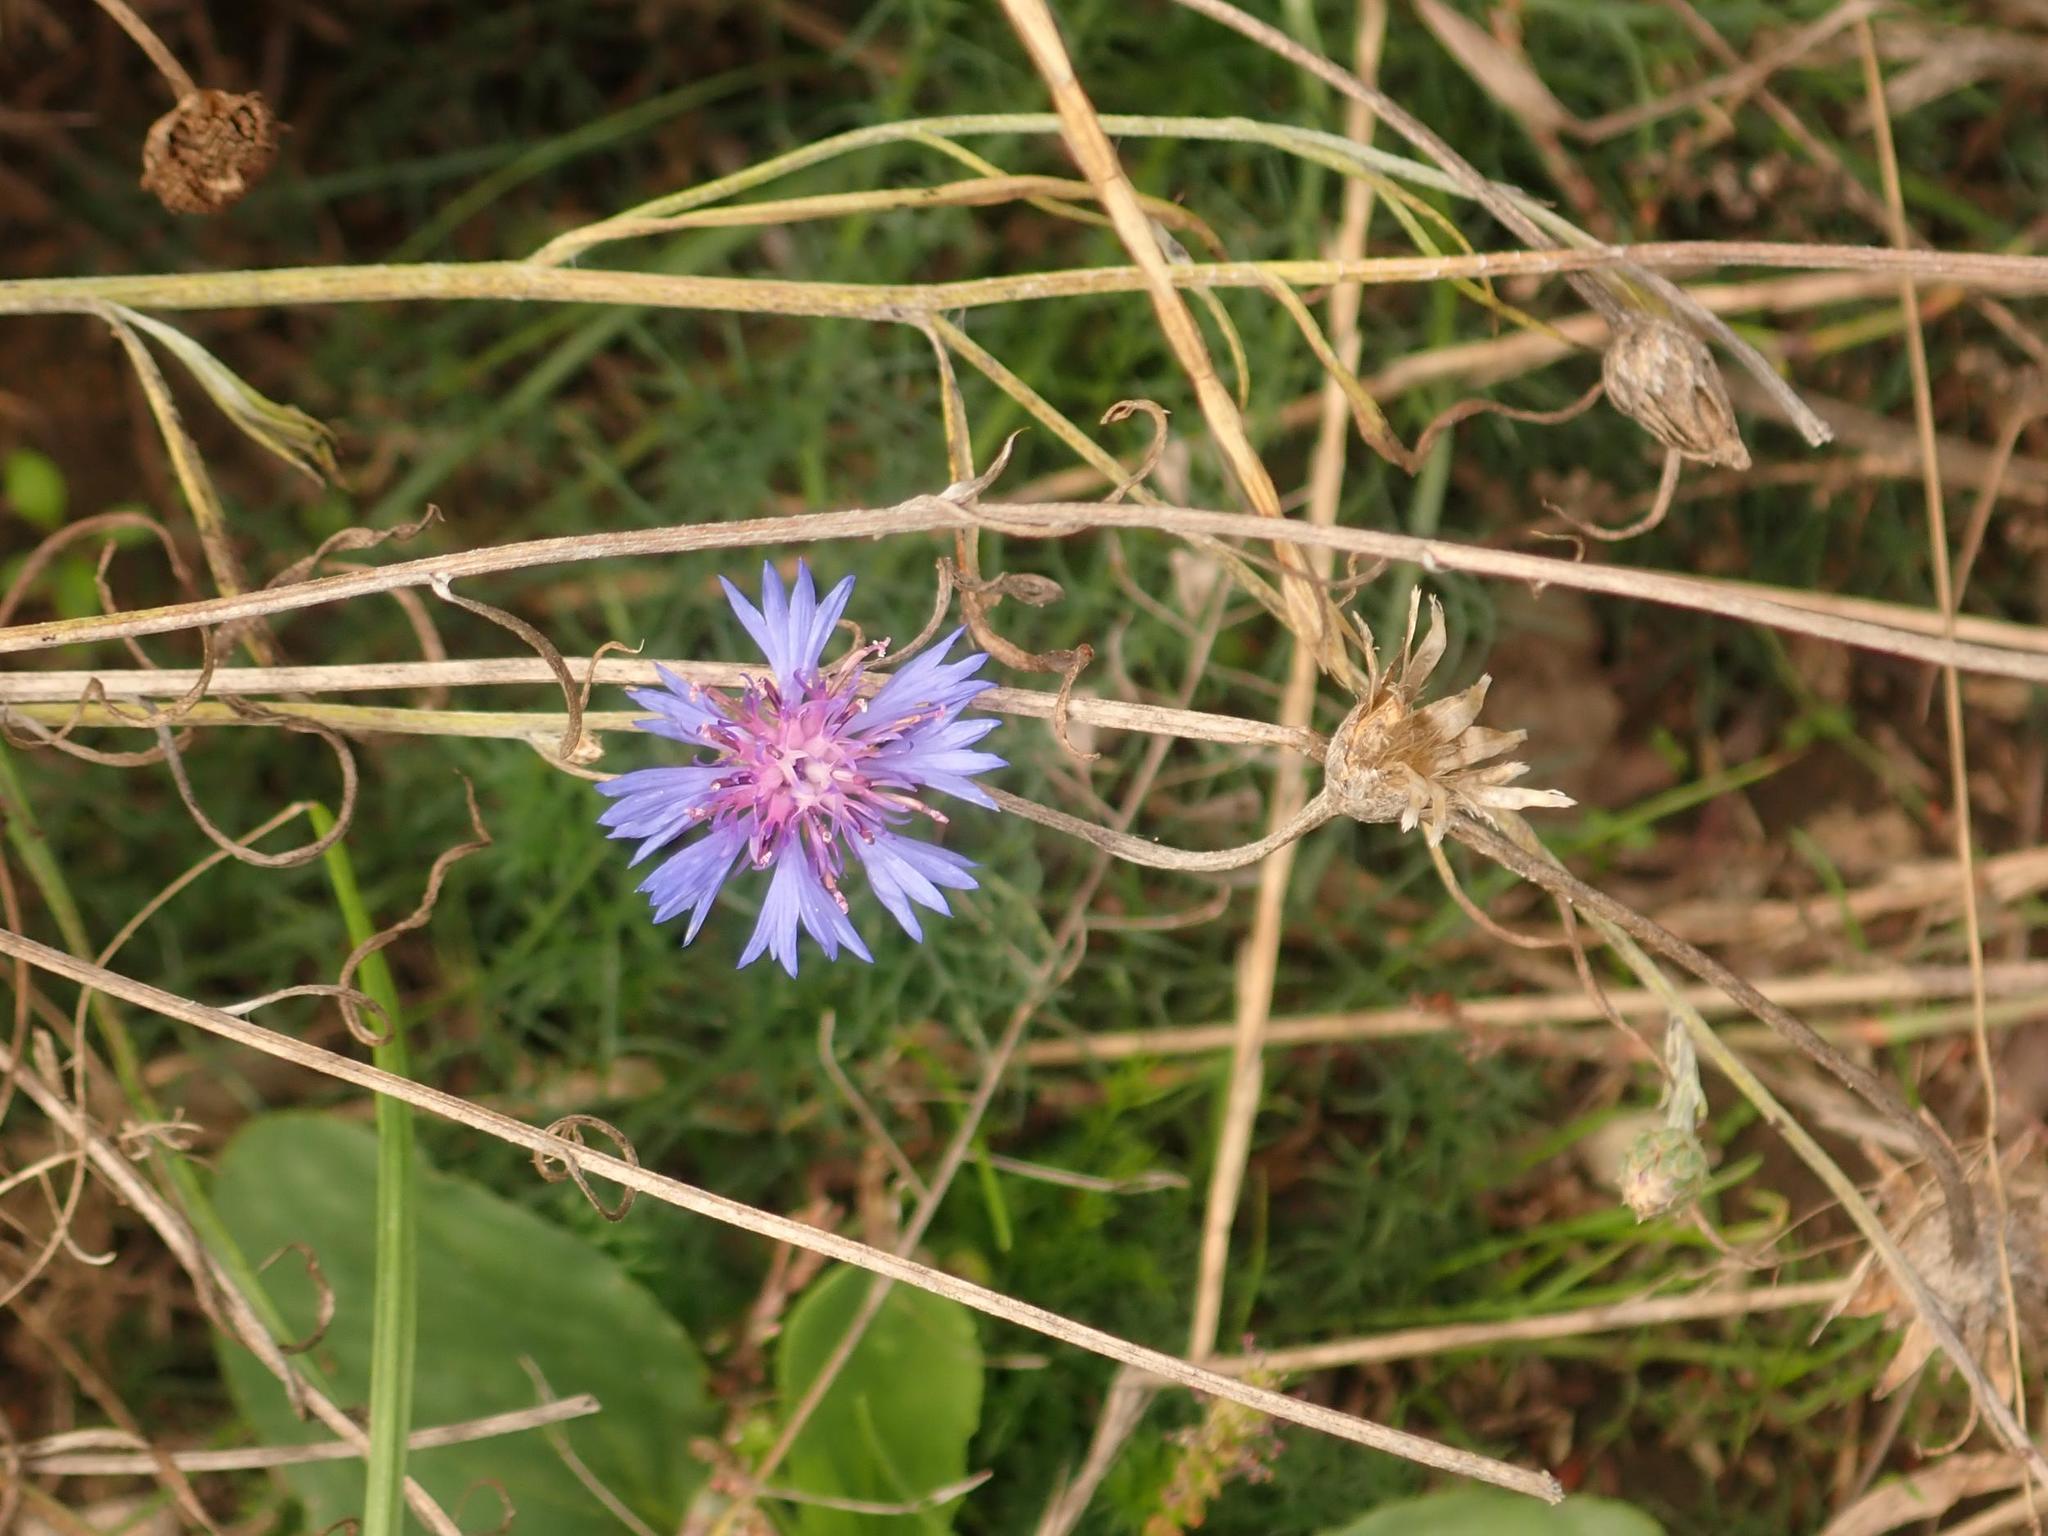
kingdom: Plantae
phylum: Tracheophyta
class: Magnoliopsida
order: Asterales
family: Asteraceae
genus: Centaurea
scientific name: Centaurea cyanus
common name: Cornflower
